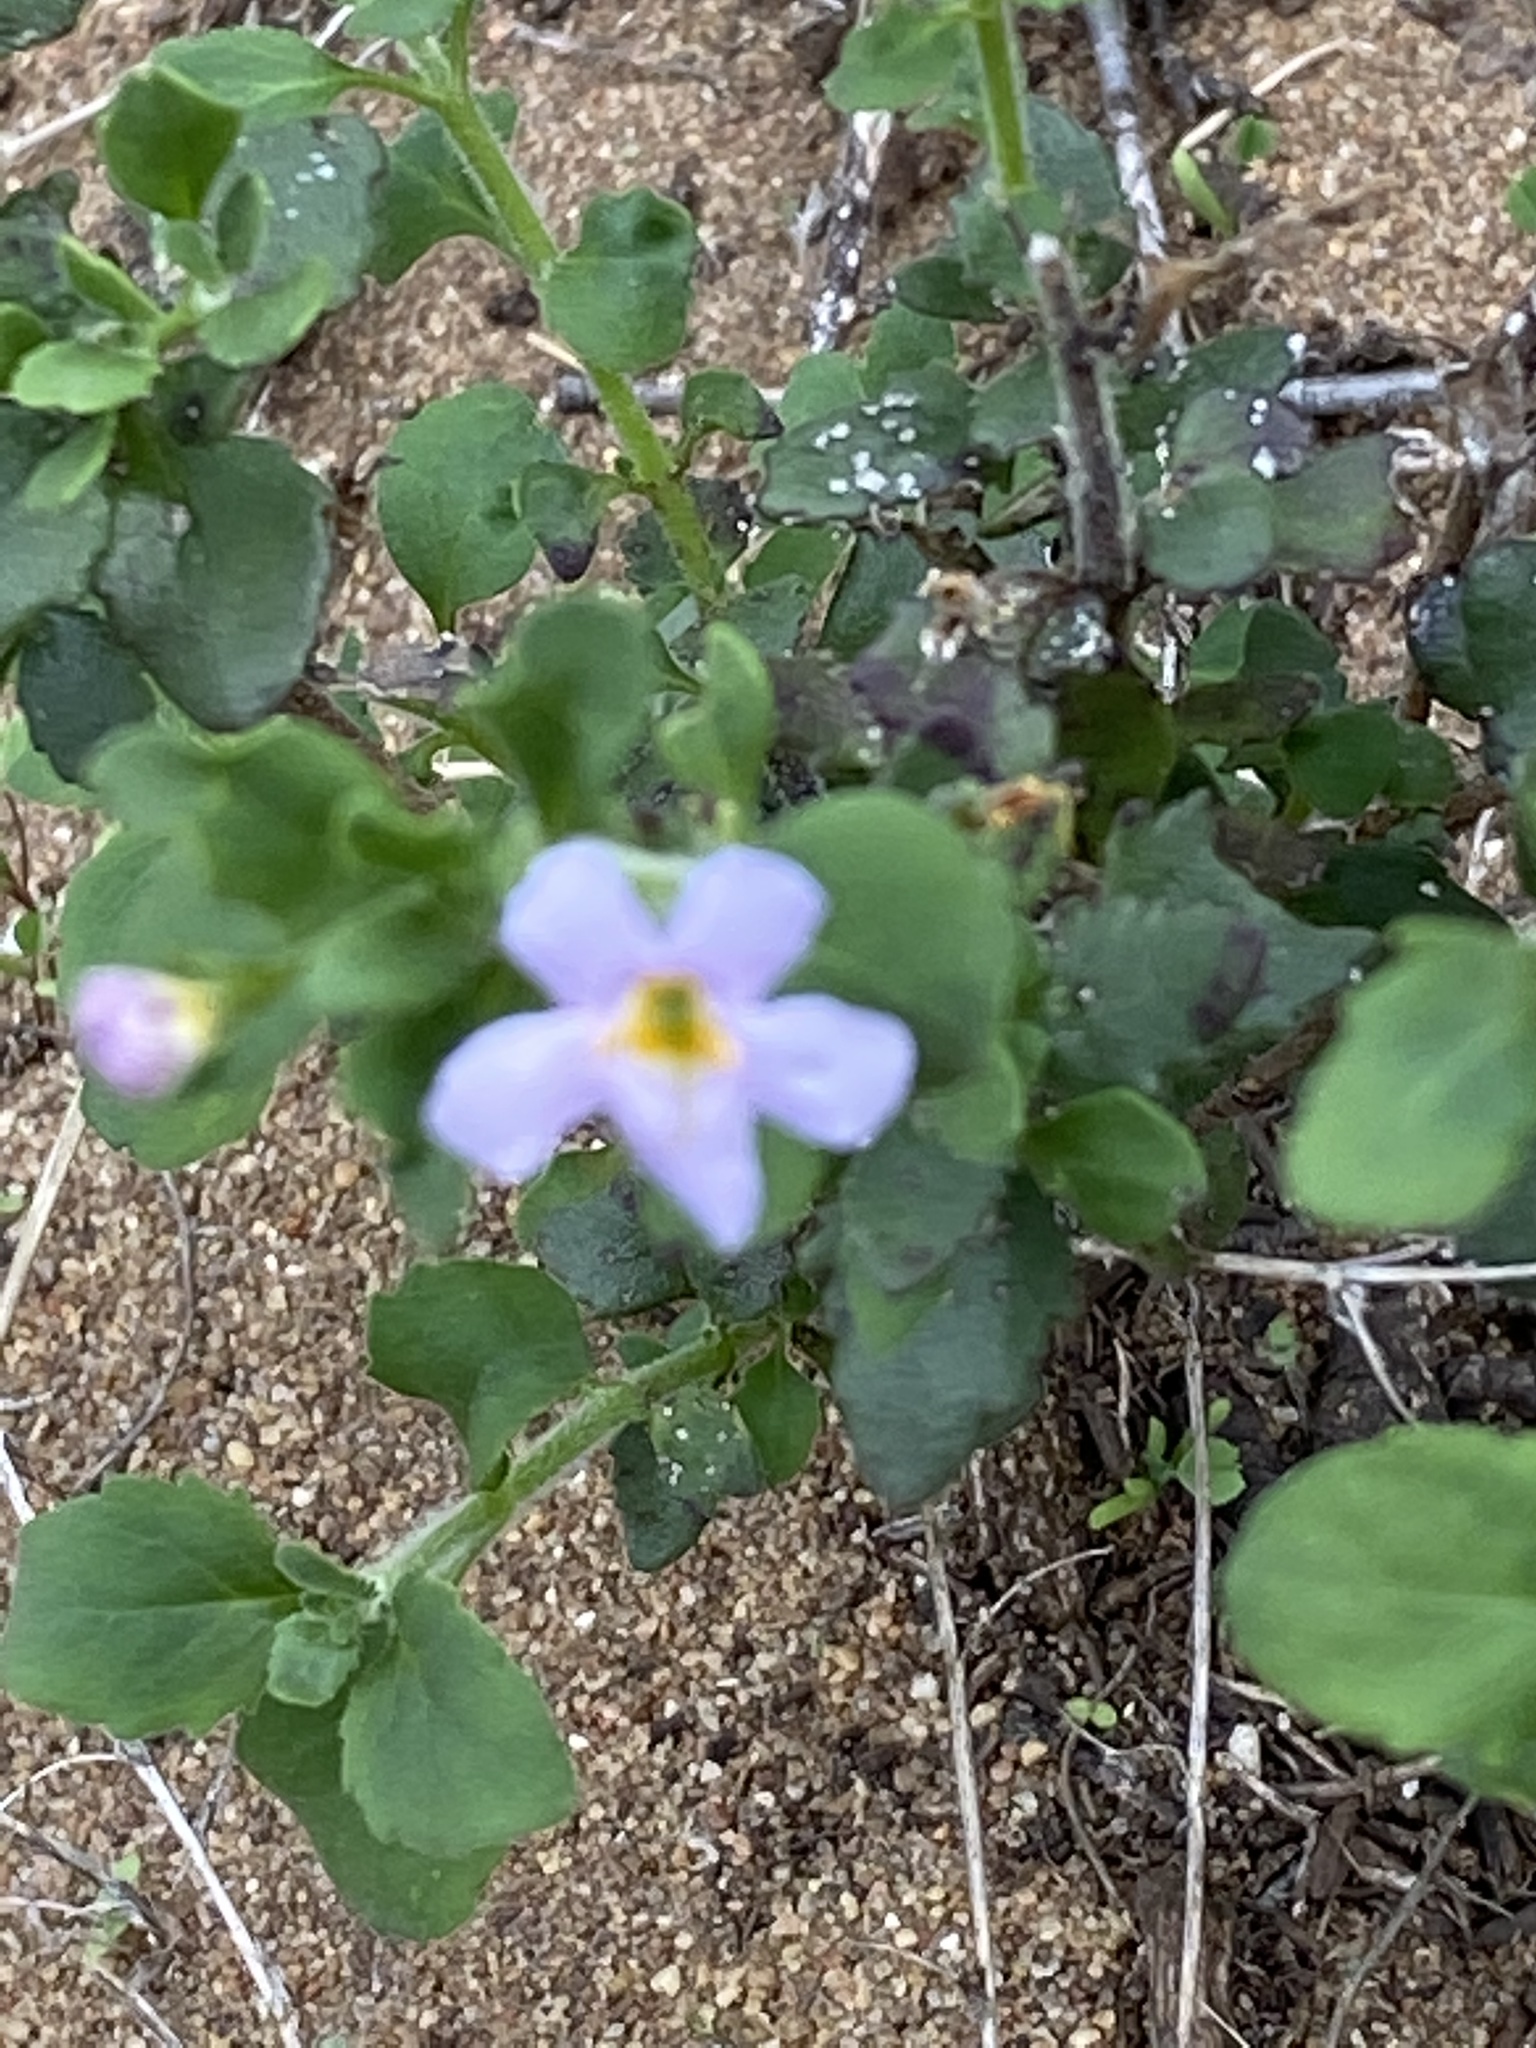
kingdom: Plantae
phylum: Tracheophyta
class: Magnoliopsida
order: Lamiales
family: Scrophulariaceae
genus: Chaenostoma
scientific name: Chaenostoma cordatum
